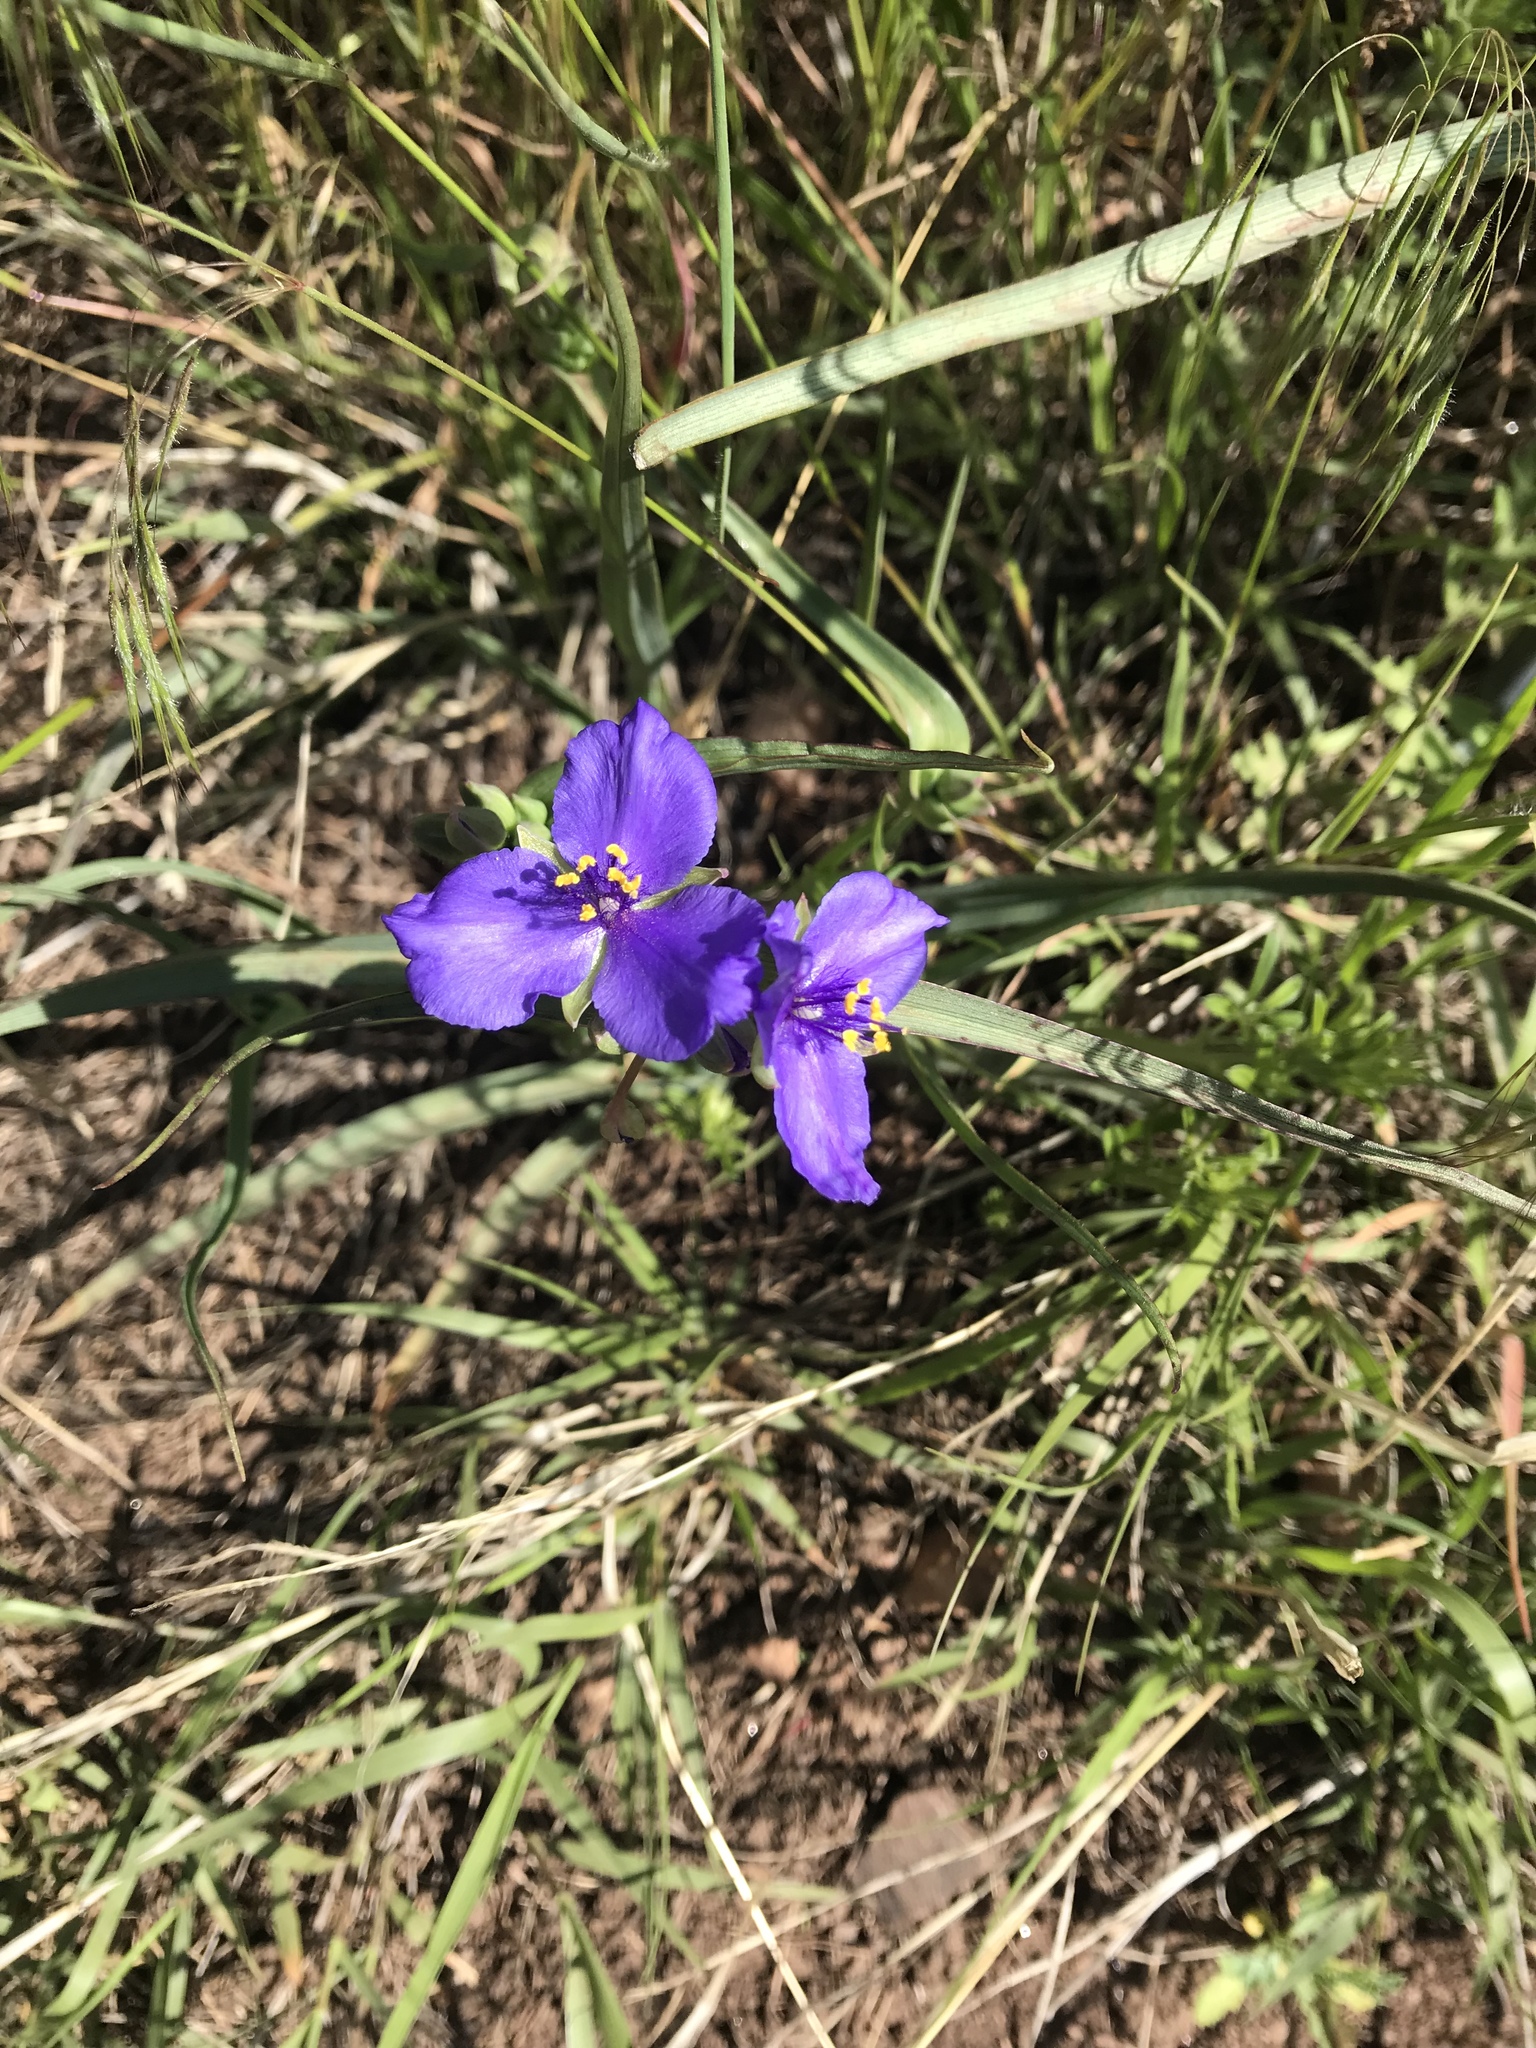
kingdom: Plantae
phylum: Tracheophyta
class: Liliopsida
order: Commelinales
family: Commelinaceae
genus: Tradescantia
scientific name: Tradescantia occidentalis
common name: Prairie spiderwort
